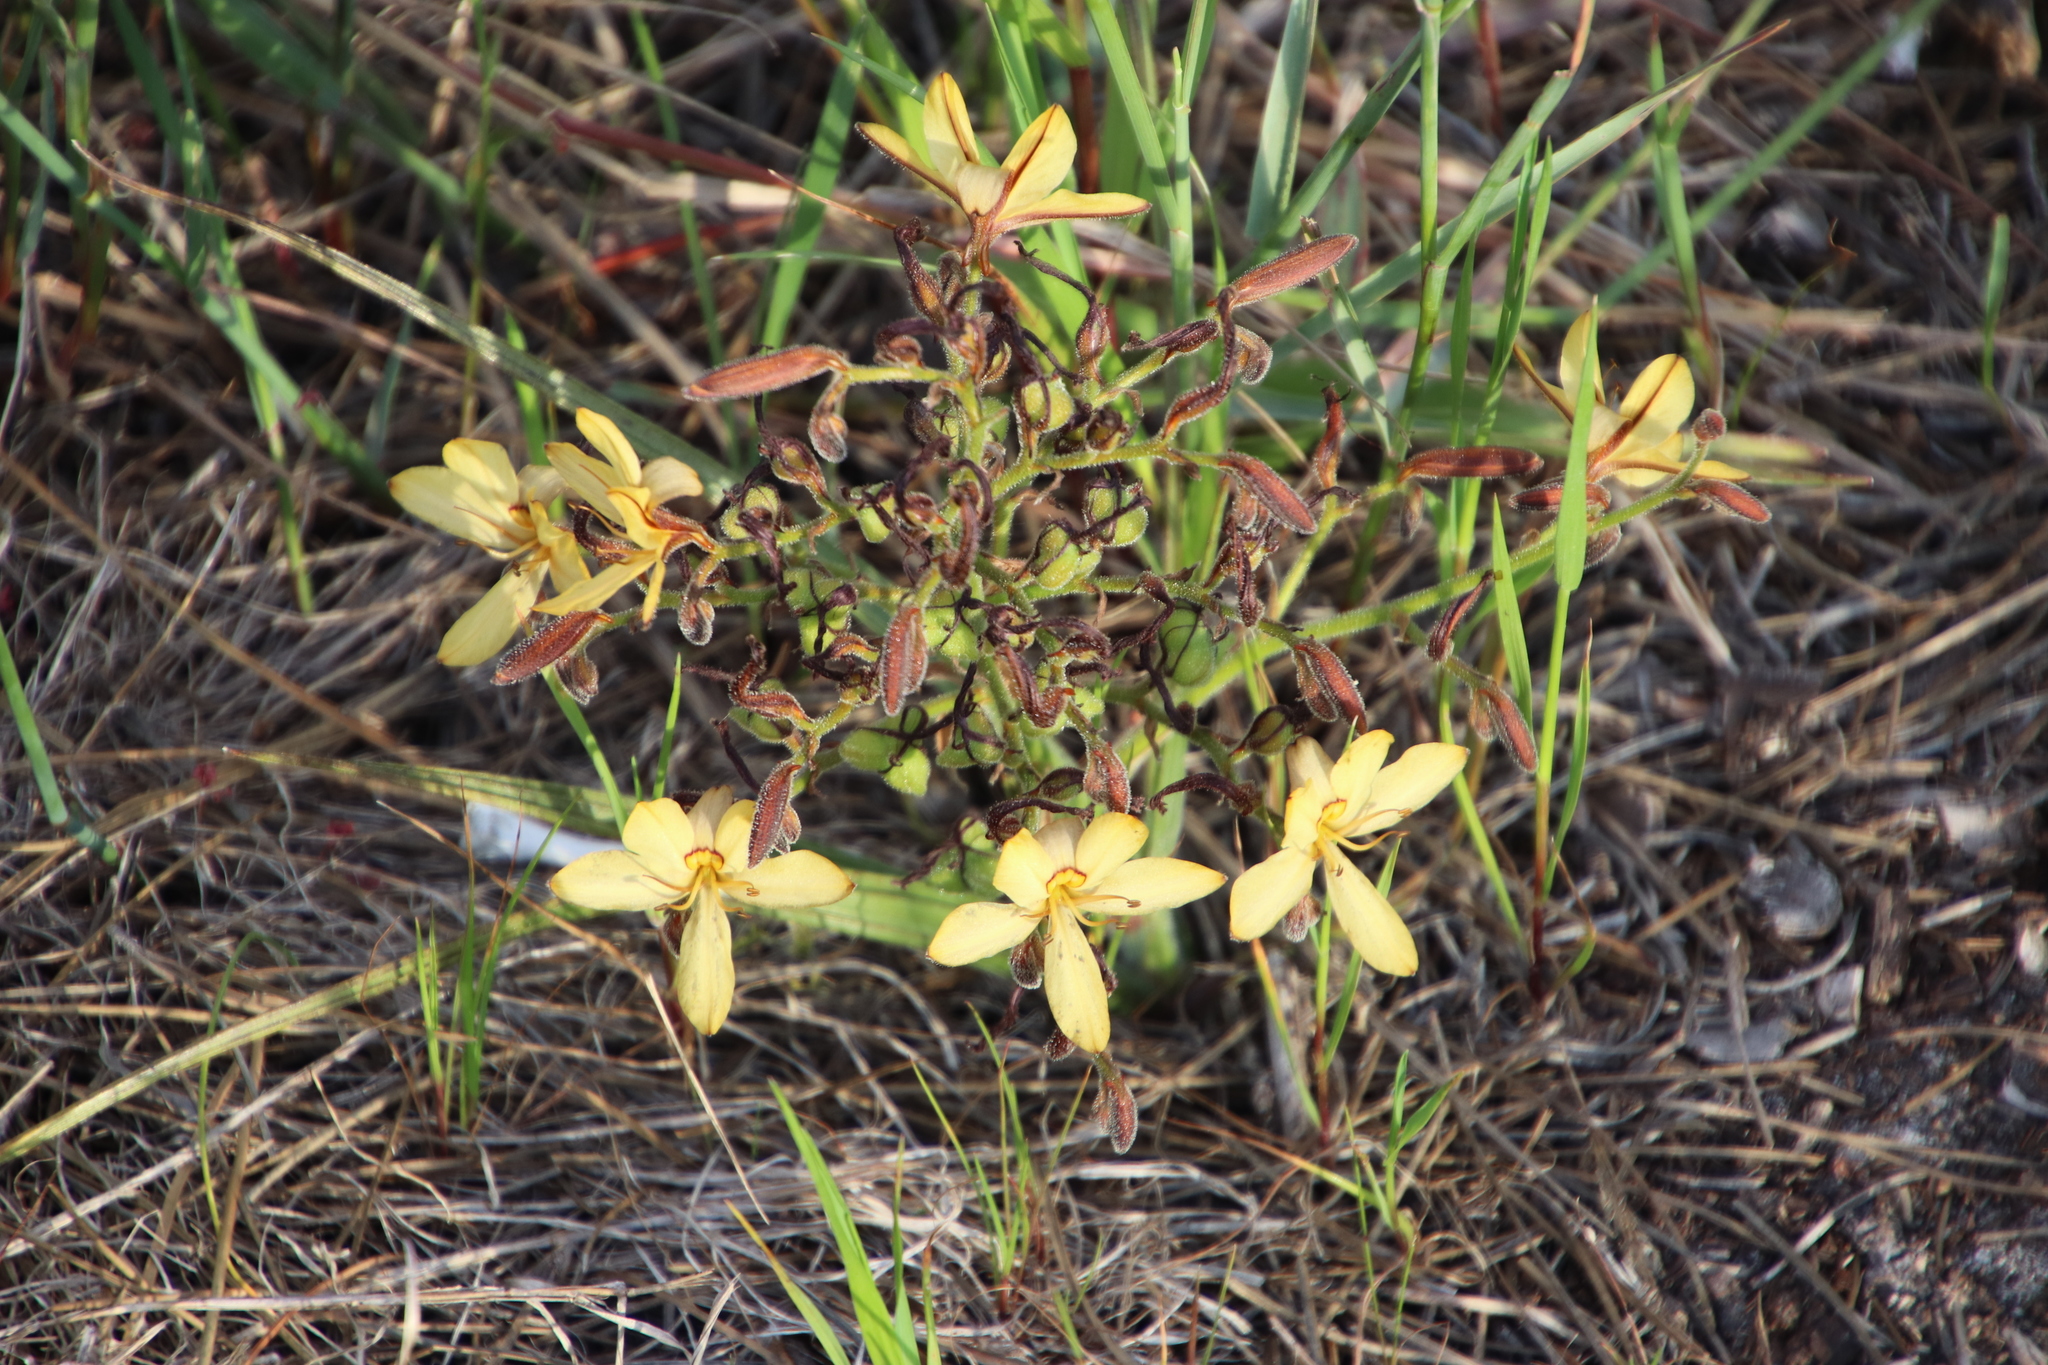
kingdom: Plantae
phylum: Tracheophyta
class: Liliopsida
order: Commelinales
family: Haemodoraceae
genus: Wachendorfia
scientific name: Wachendorfia paniculata
